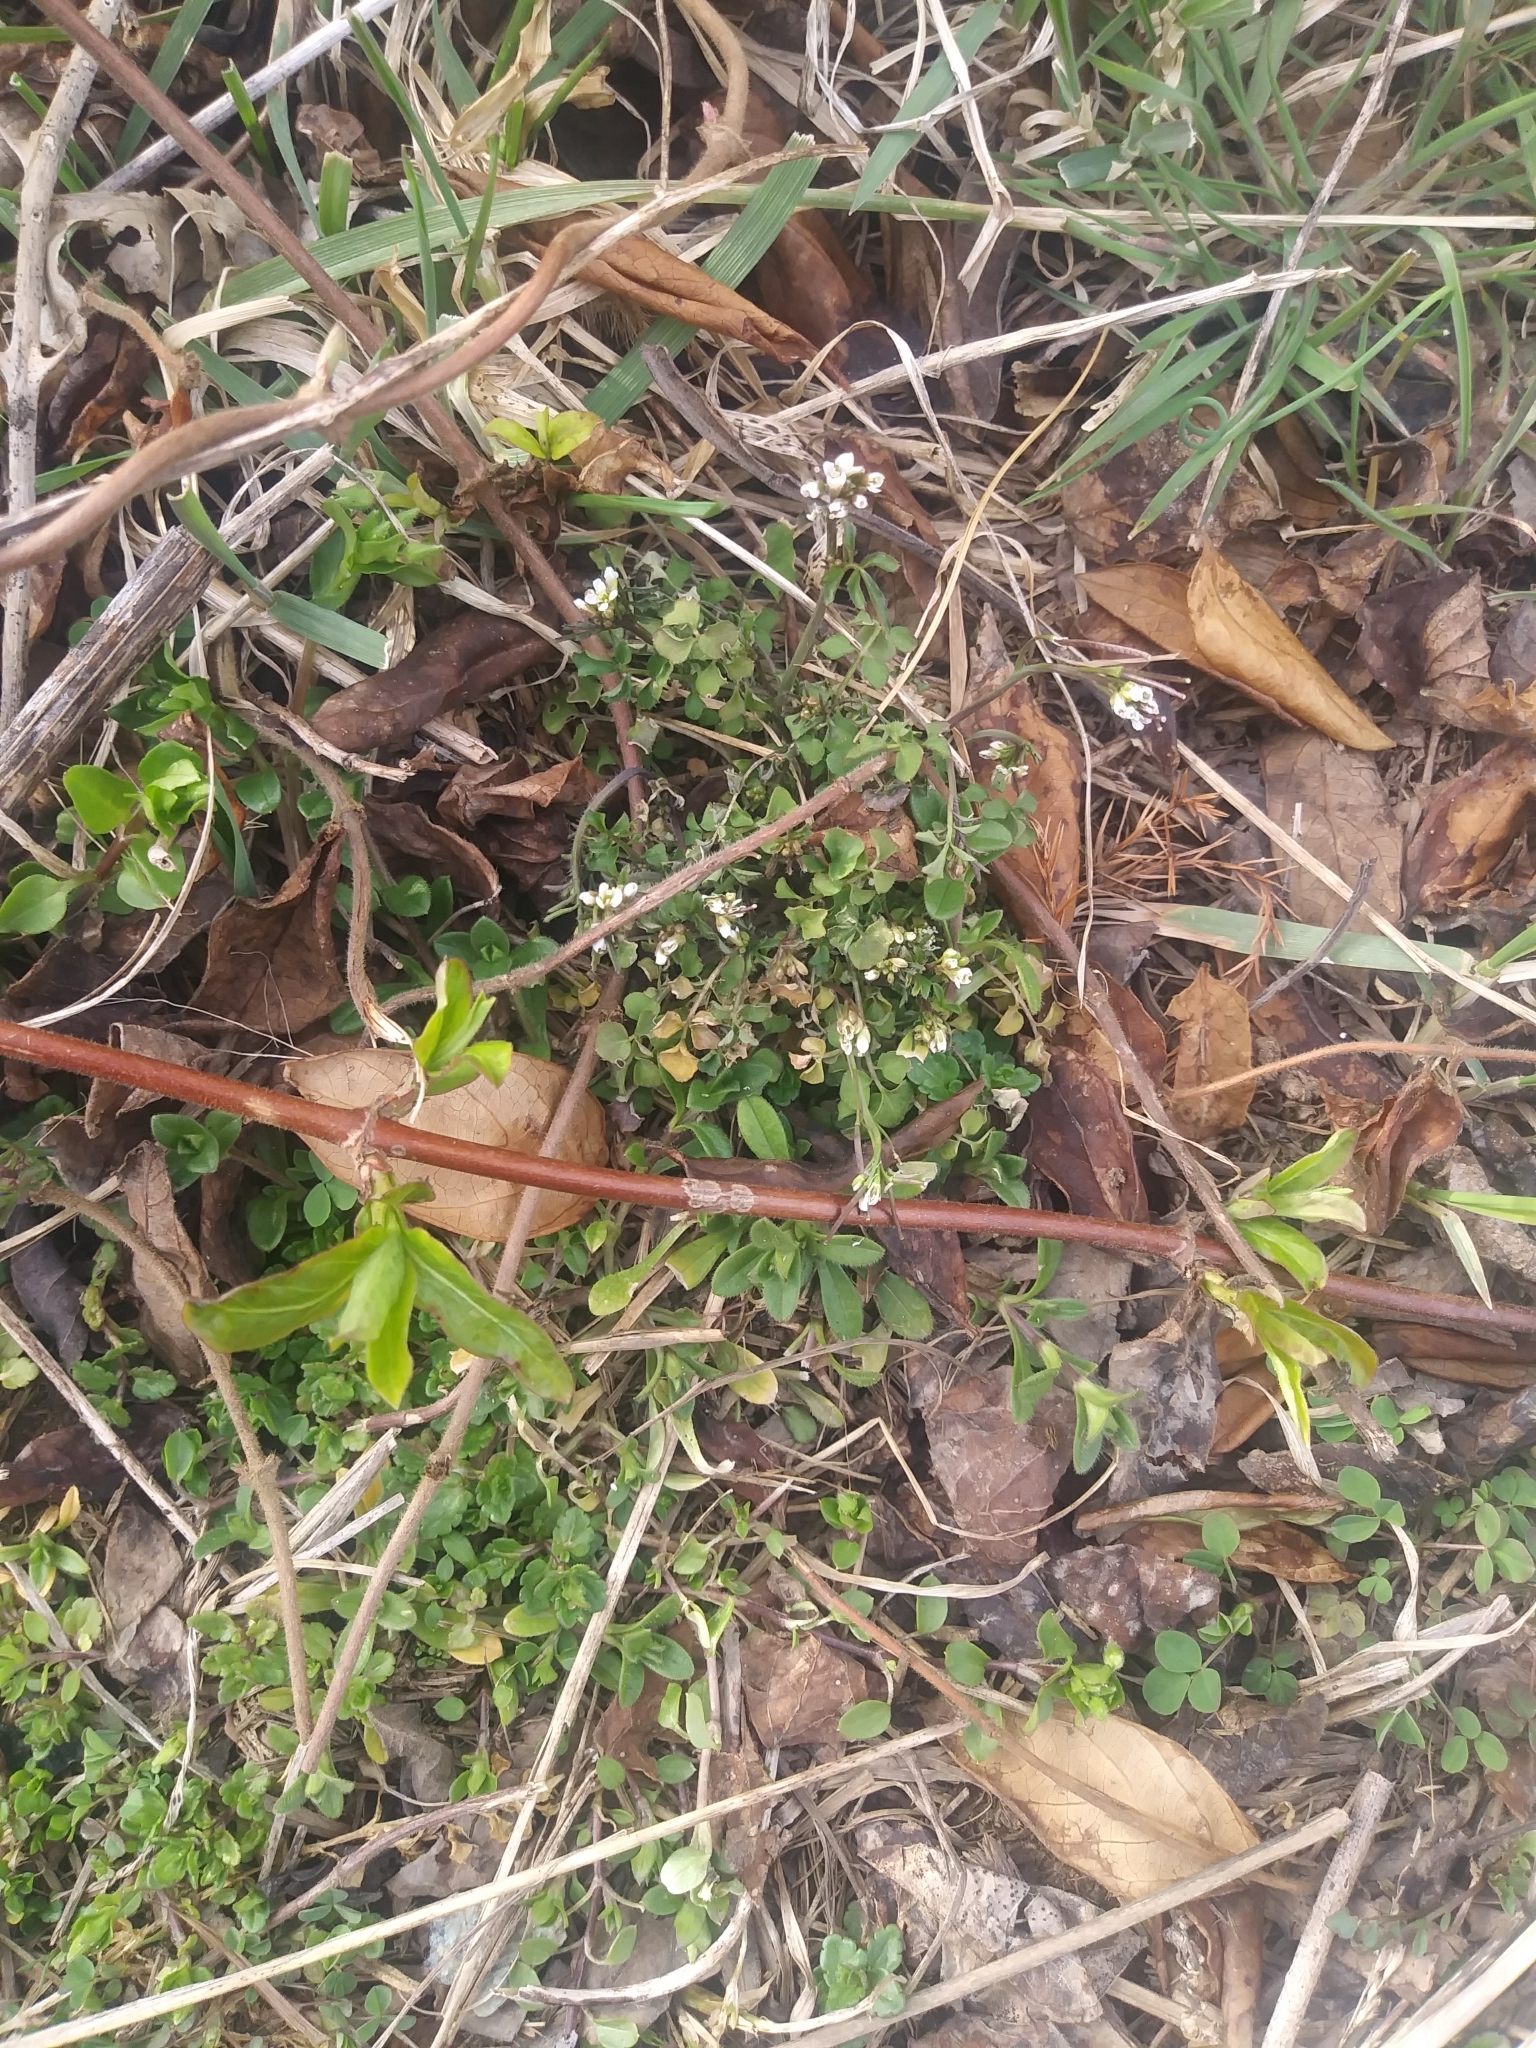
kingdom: Plantae
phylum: Tracheophyta
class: Magnoliopsida
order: Brassicales
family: Brassicaceae
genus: Cardamine
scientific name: Cardamine hirsuta
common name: Hairy bittercress
